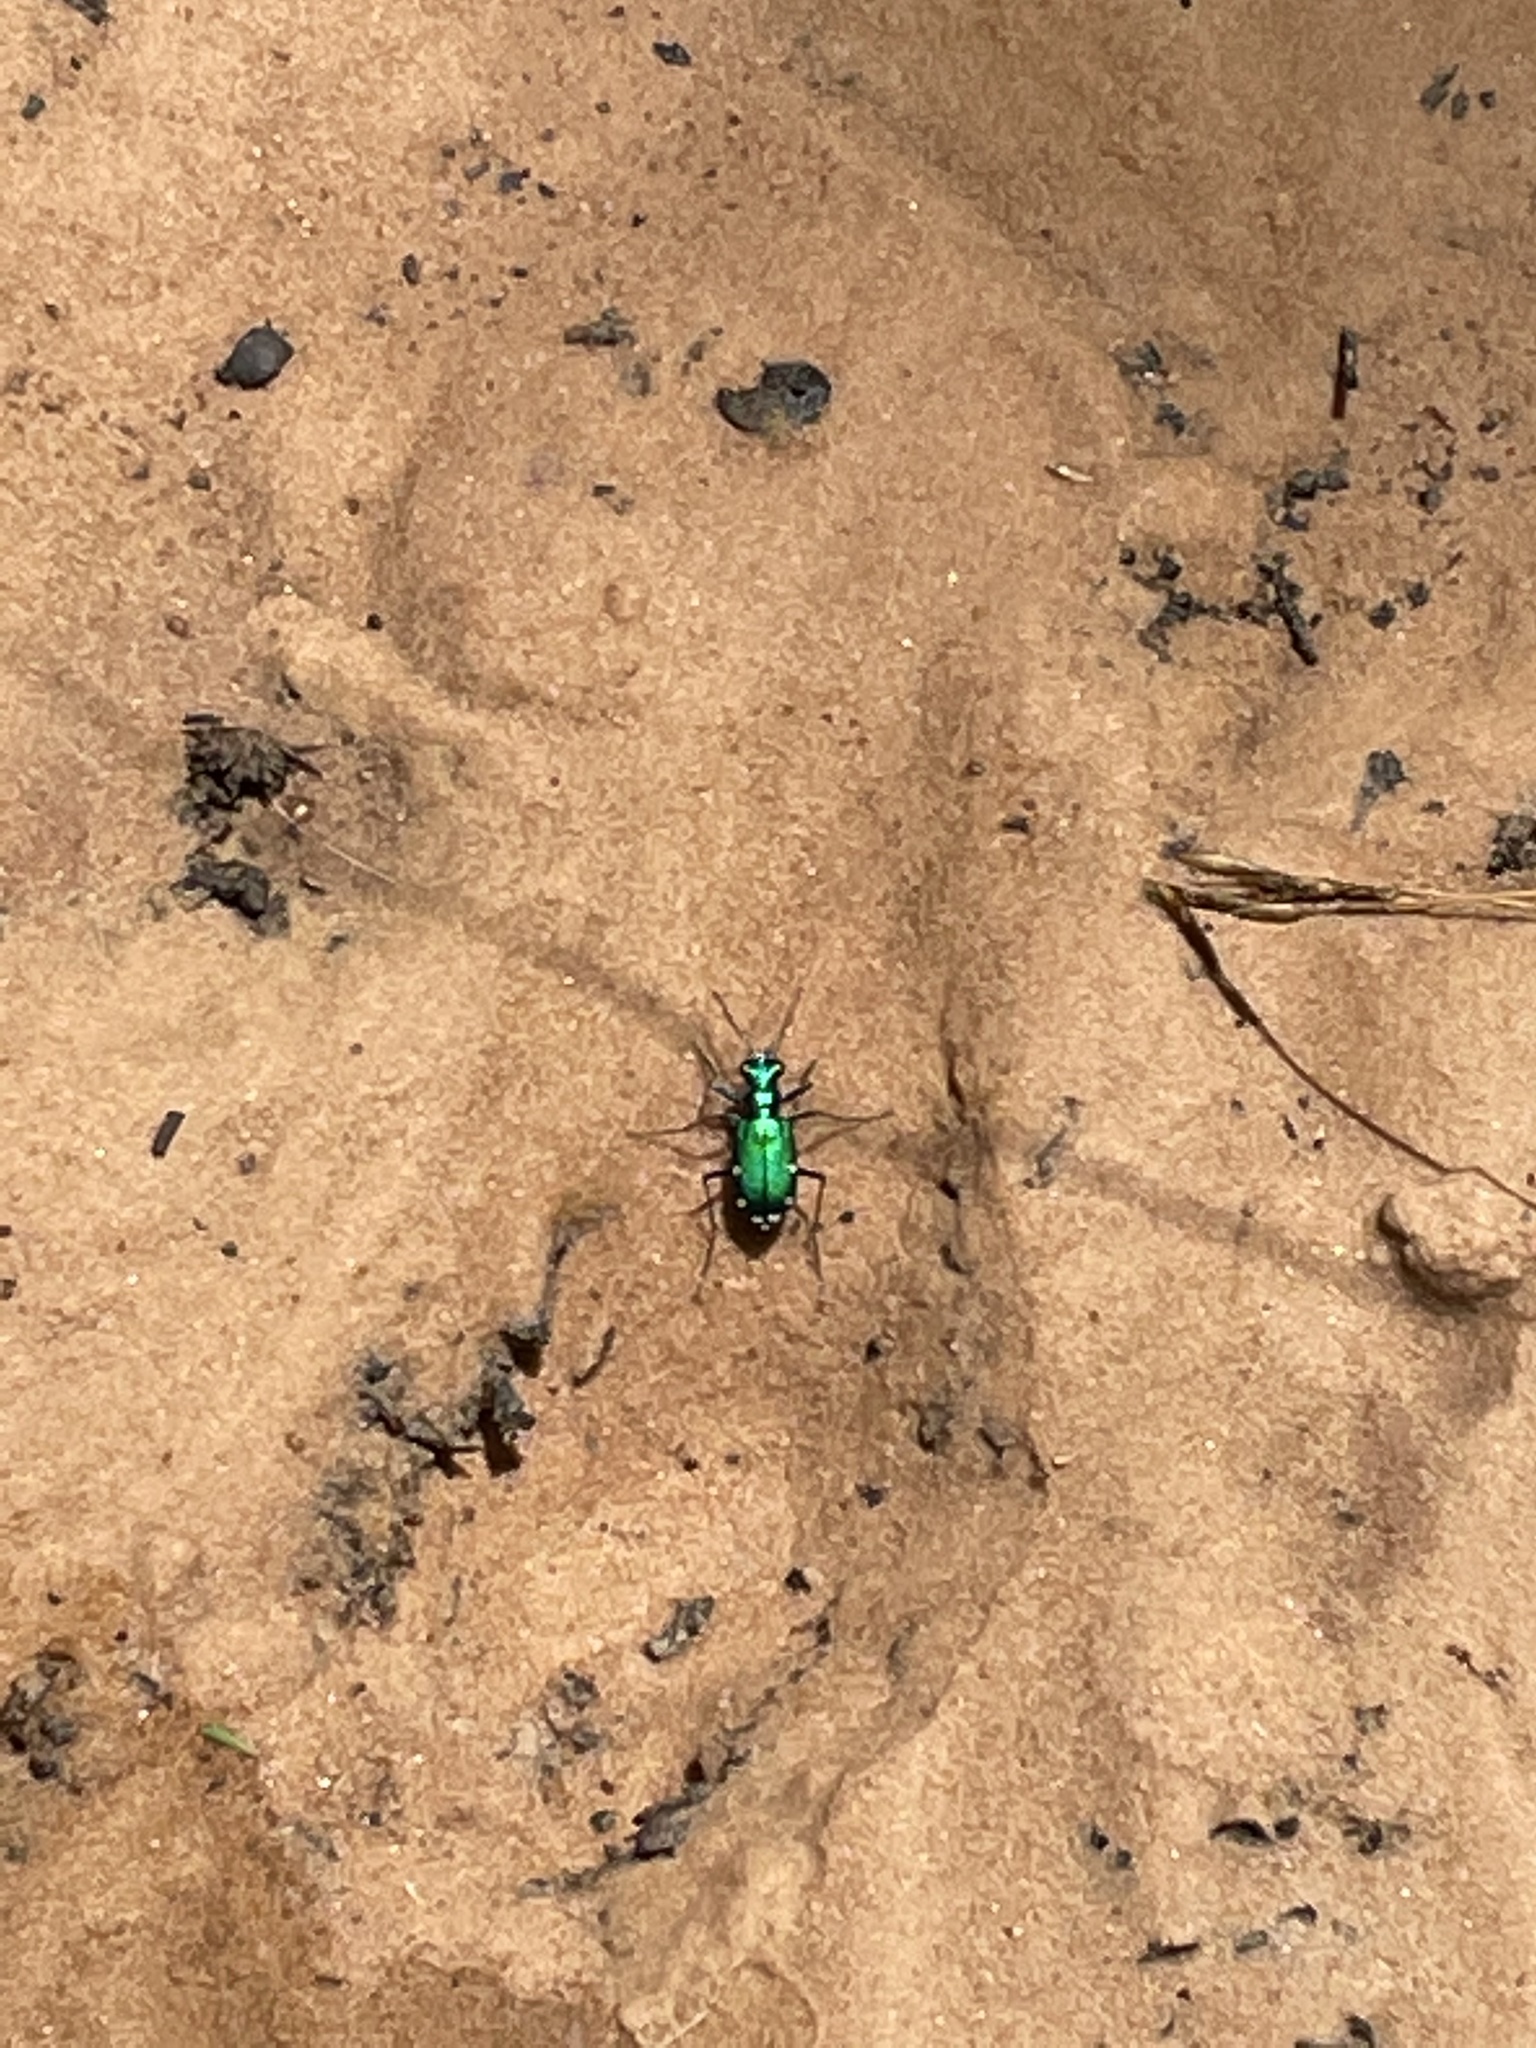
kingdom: Animalia
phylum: Arthropoda
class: Insecta
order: Coleoptera
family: Carabidae
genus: Cicindela
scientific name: Cicindela sexguttata
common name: Six-spotted tiger beetle
